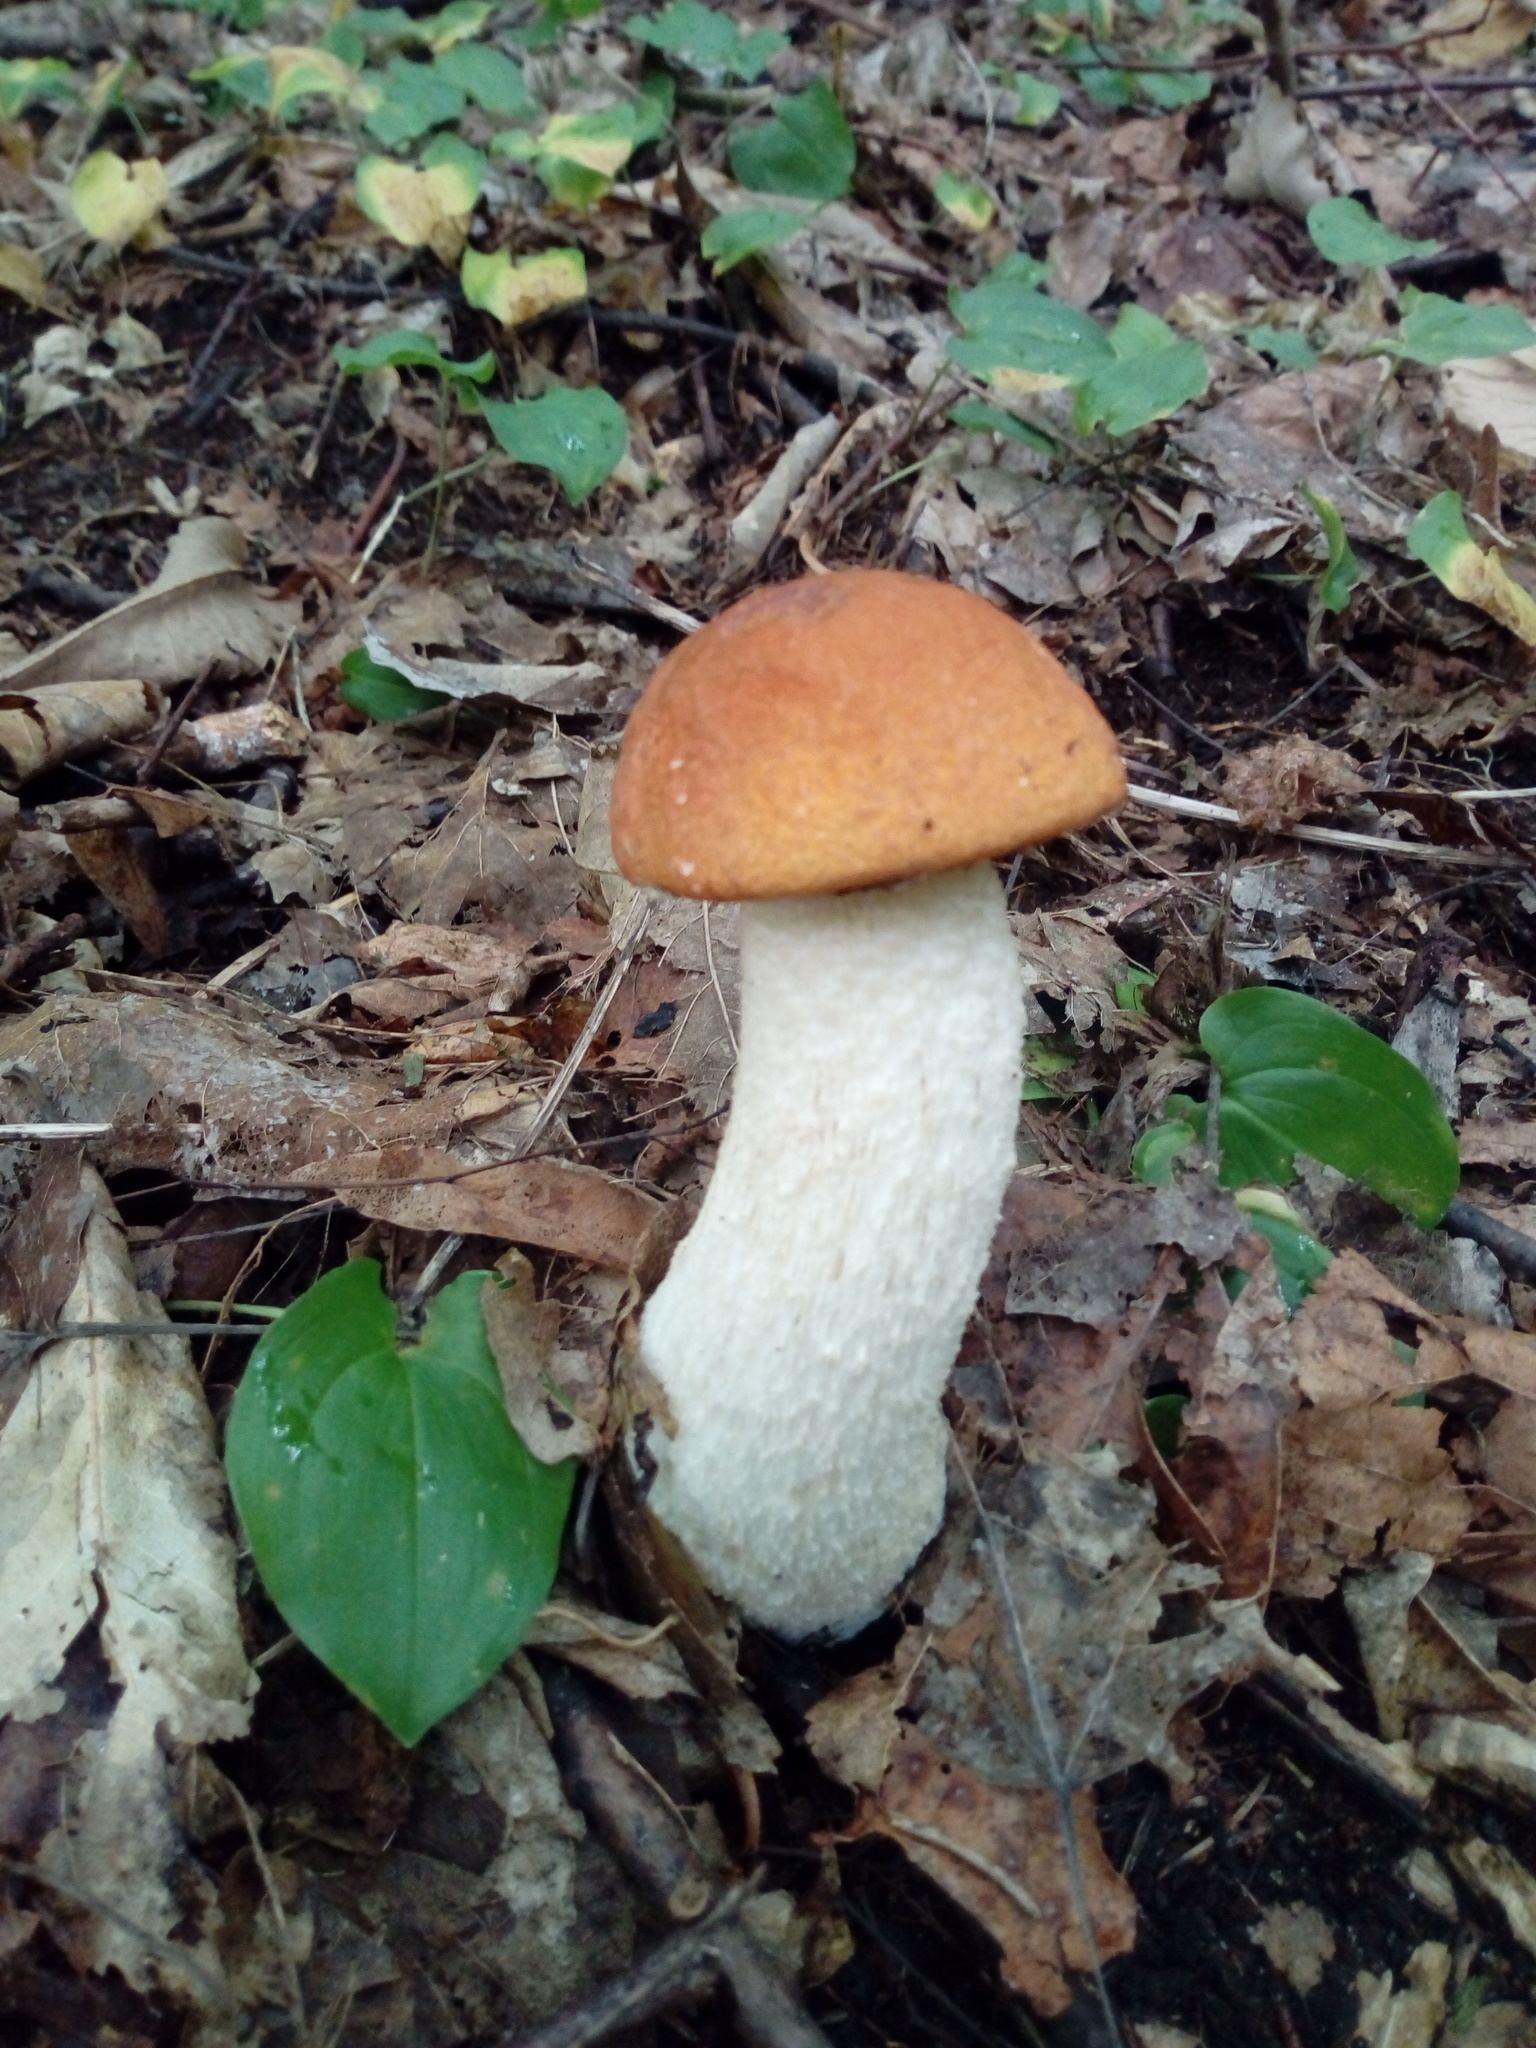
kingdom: Fungi
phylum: Basidiomycota
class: Agaricomycetes
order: Boletales
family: Boletaceae
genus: Leccinum
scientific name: Leccinum albostipitatum
